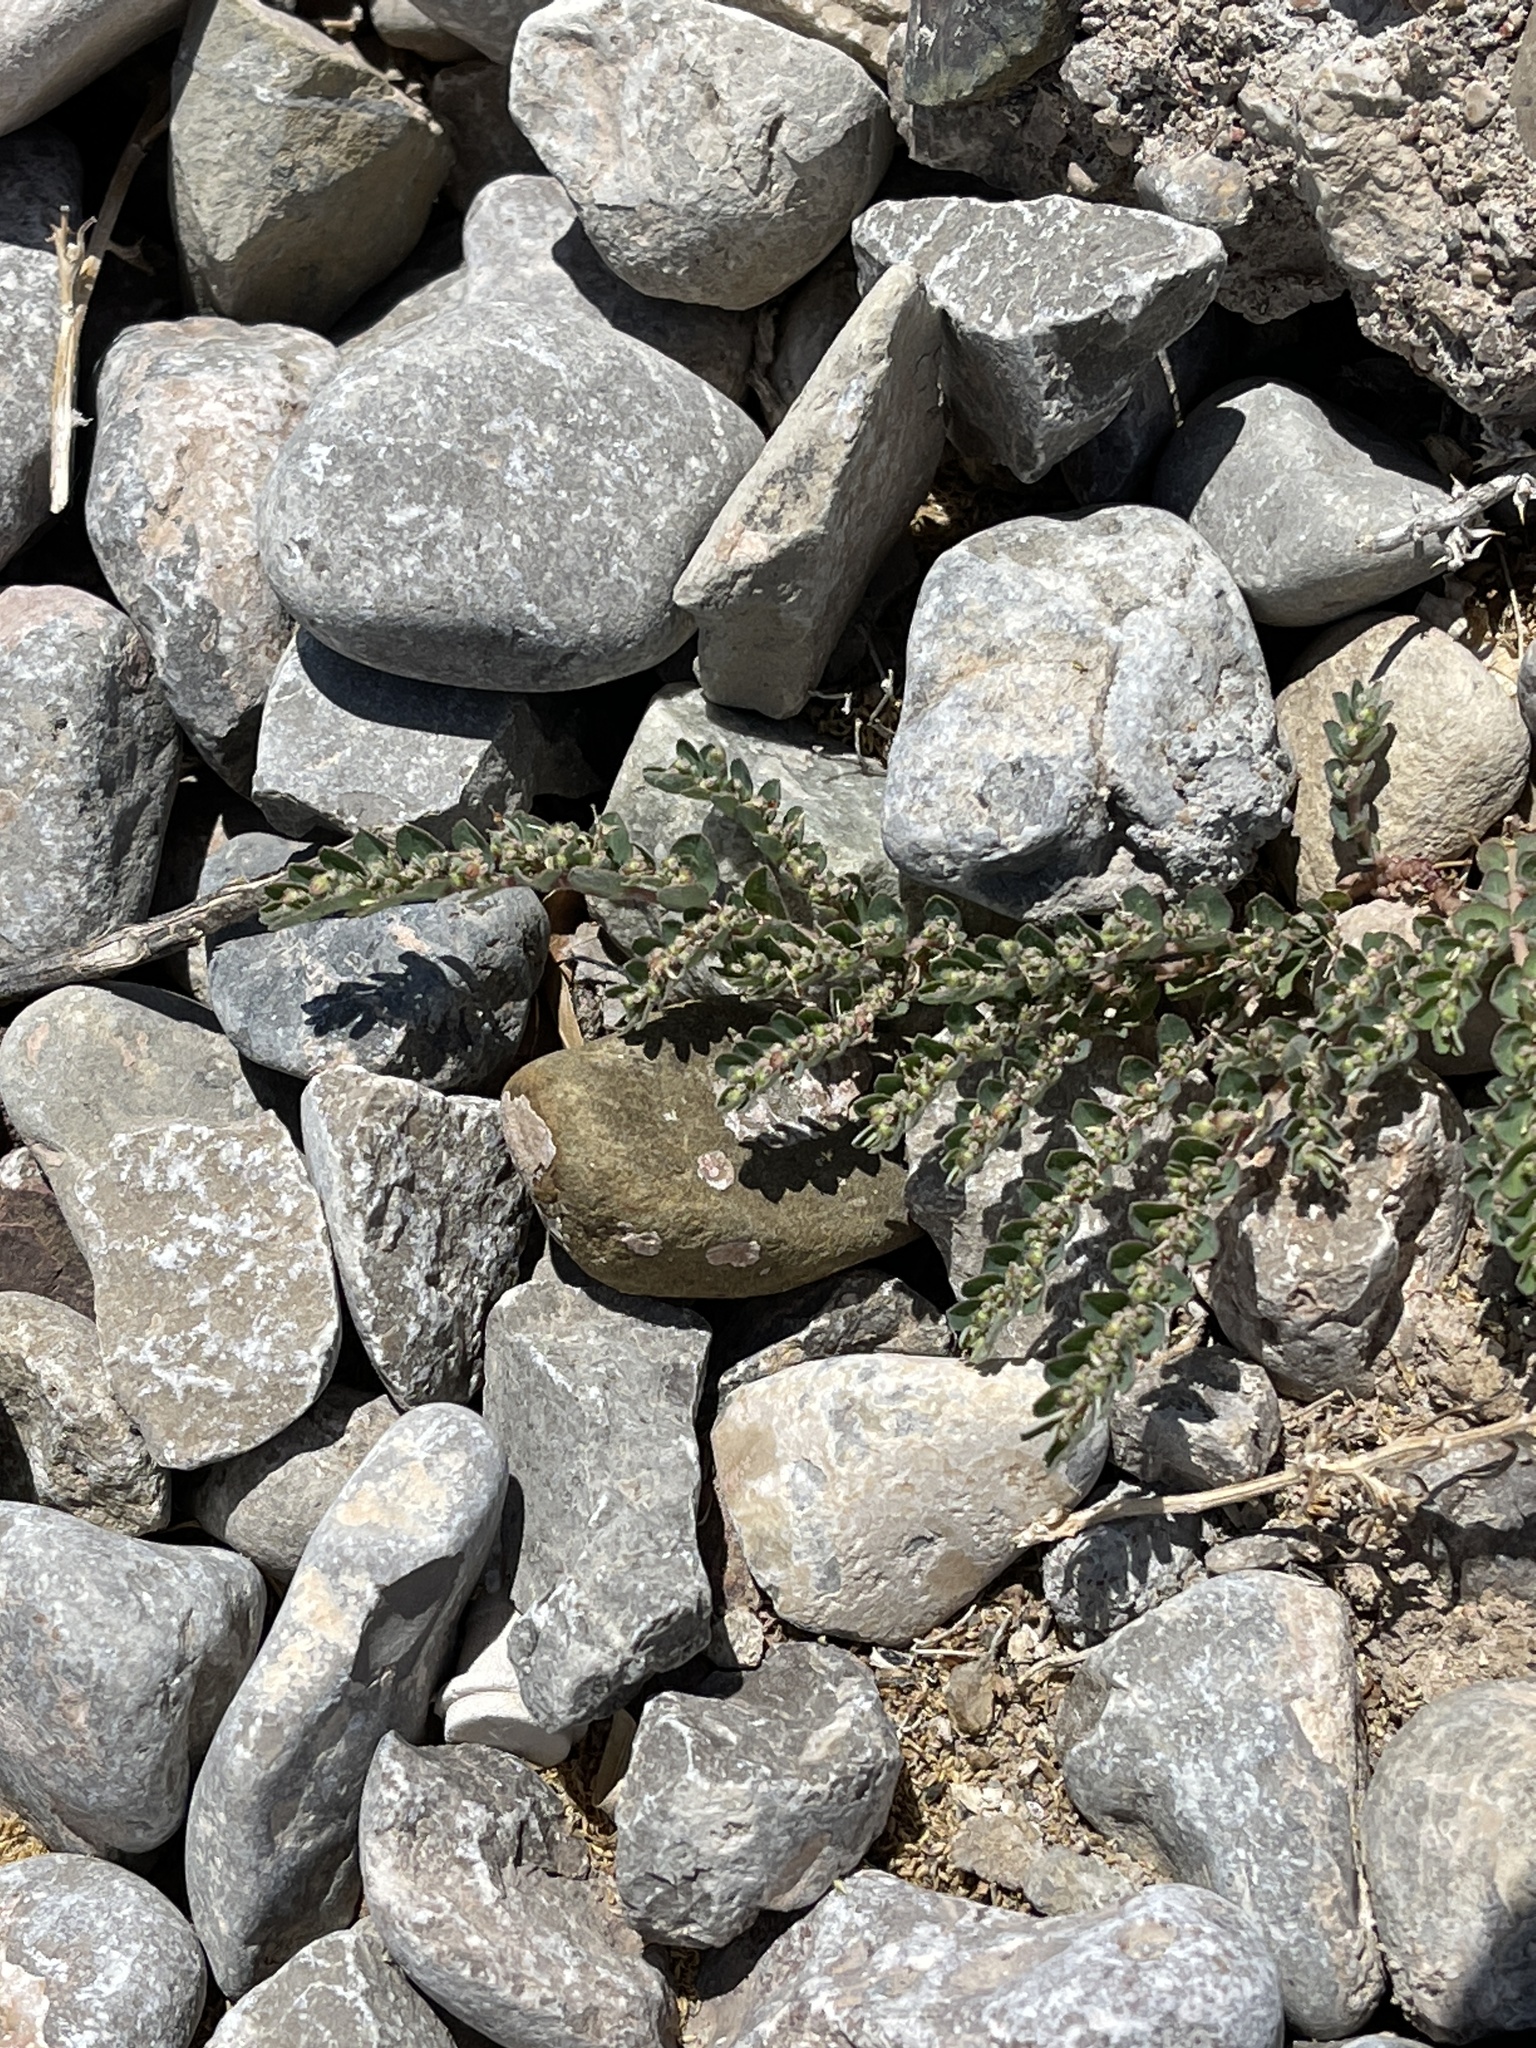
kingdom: Plantae
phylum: Tracheophyta
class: Magnoliopsida
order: Malpighiales
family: Euphorbiaceae
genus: Euphorbia
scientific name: Euphorbia prostrata
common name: Prostrate sandmat
